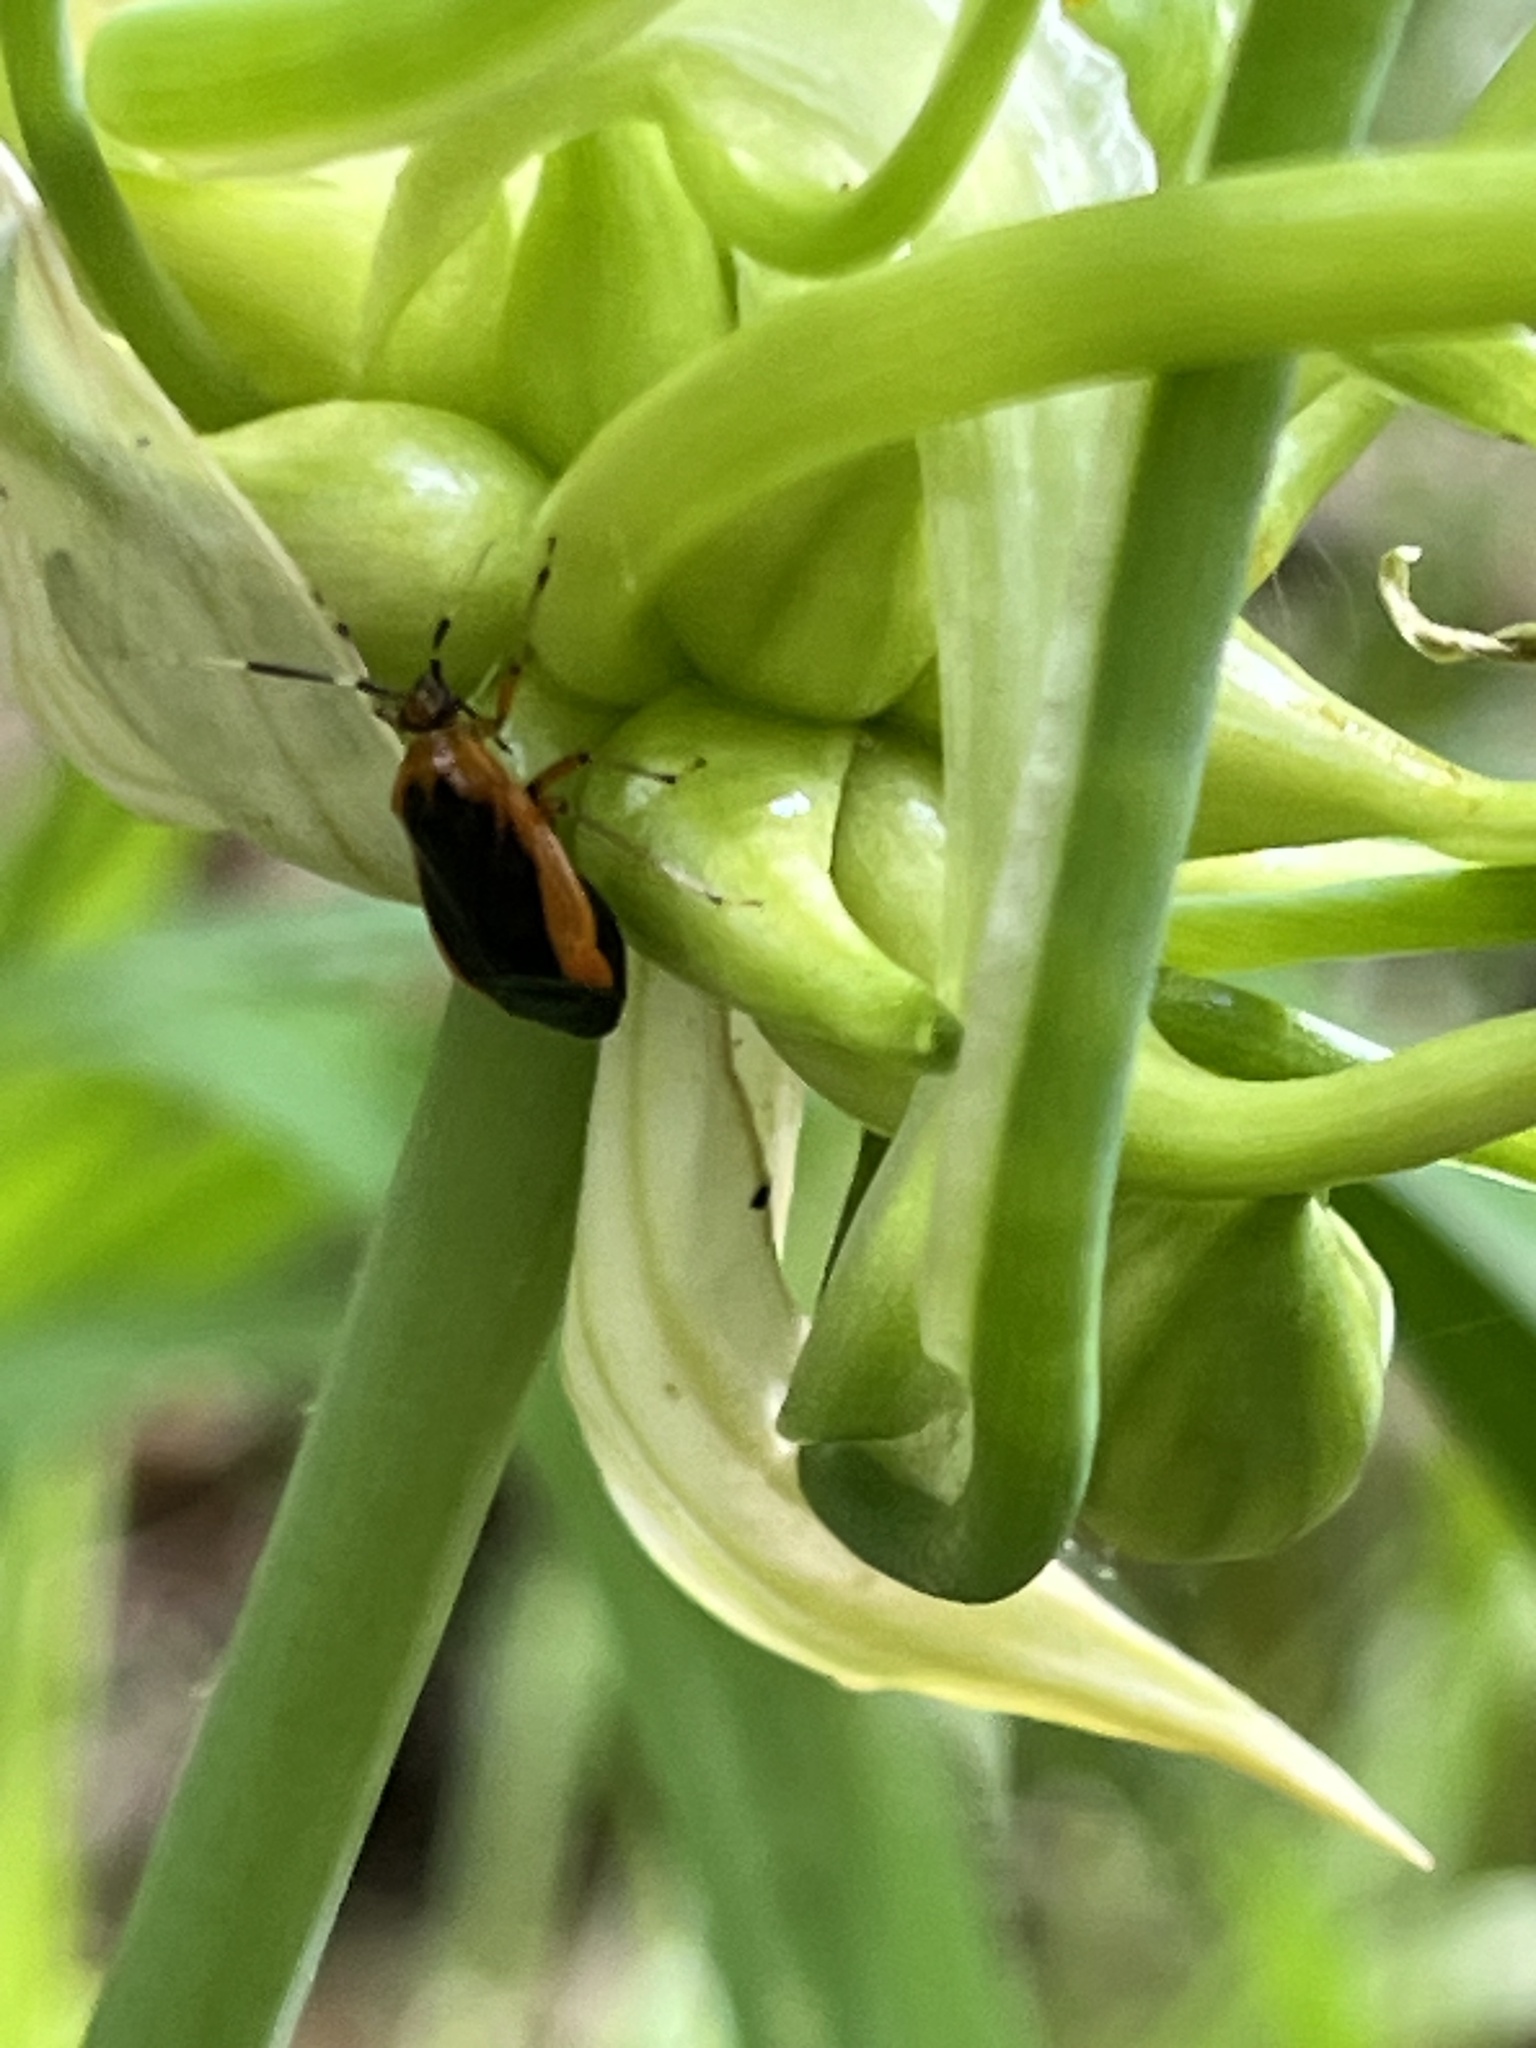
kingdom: Animalia
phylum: Arthropoda
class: Insecta
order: Hemiptera
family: Miridae
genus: Metriorrhynchomiris
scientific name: Metriorrhynchomiris dislocatus
